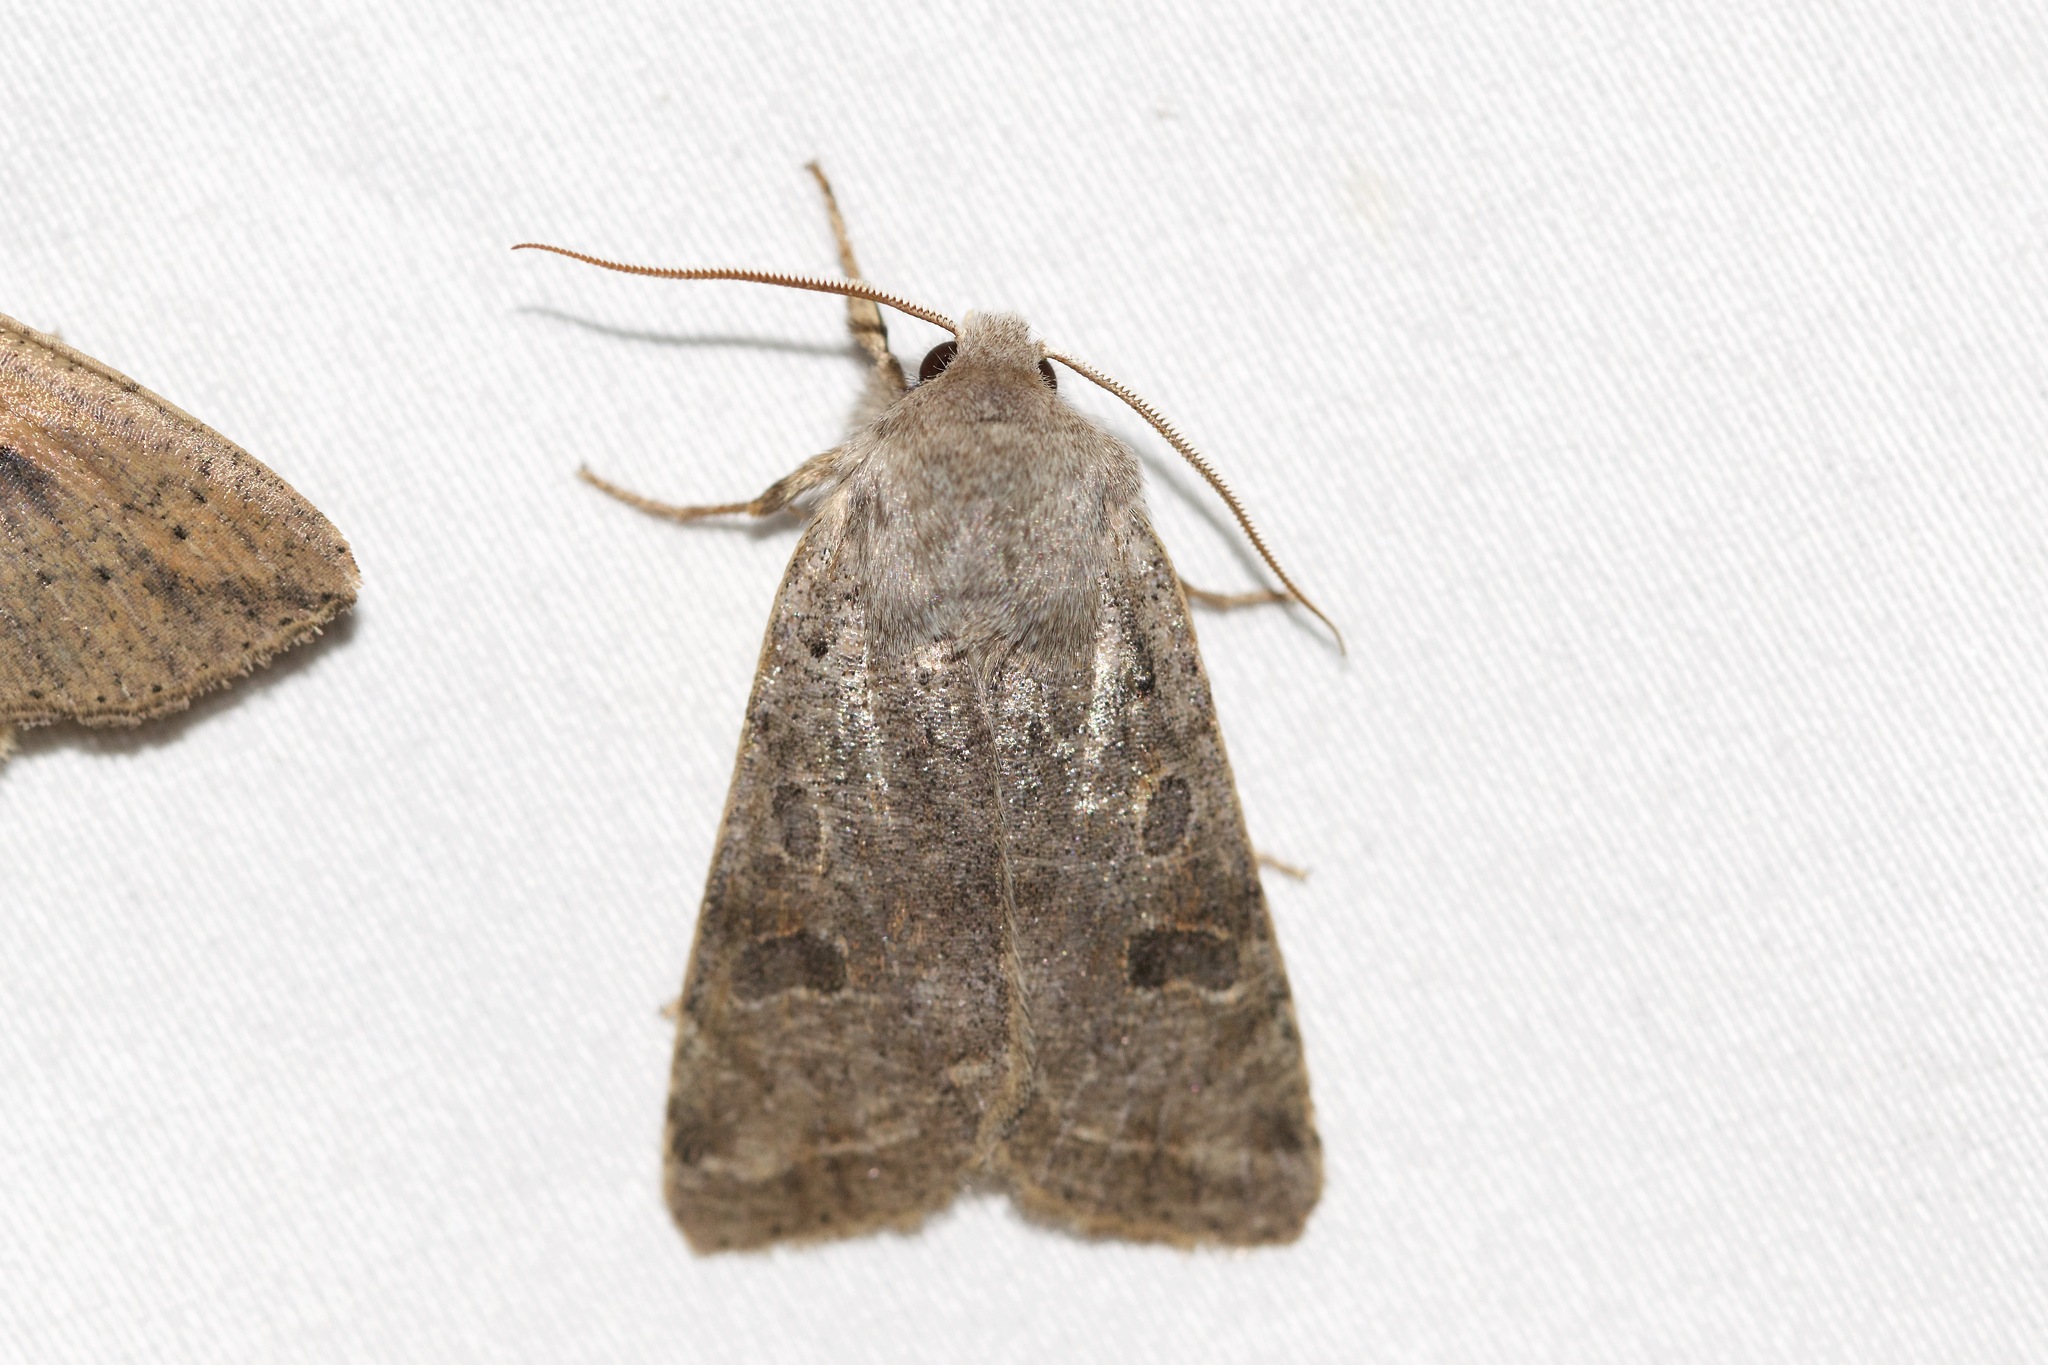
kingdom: Animalia
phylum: Arthropoda
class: Insecta
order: Lepidoptera
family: Noctuidae
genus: Orthosia
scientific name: Orthosia hibisci
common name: Green fruitworm
